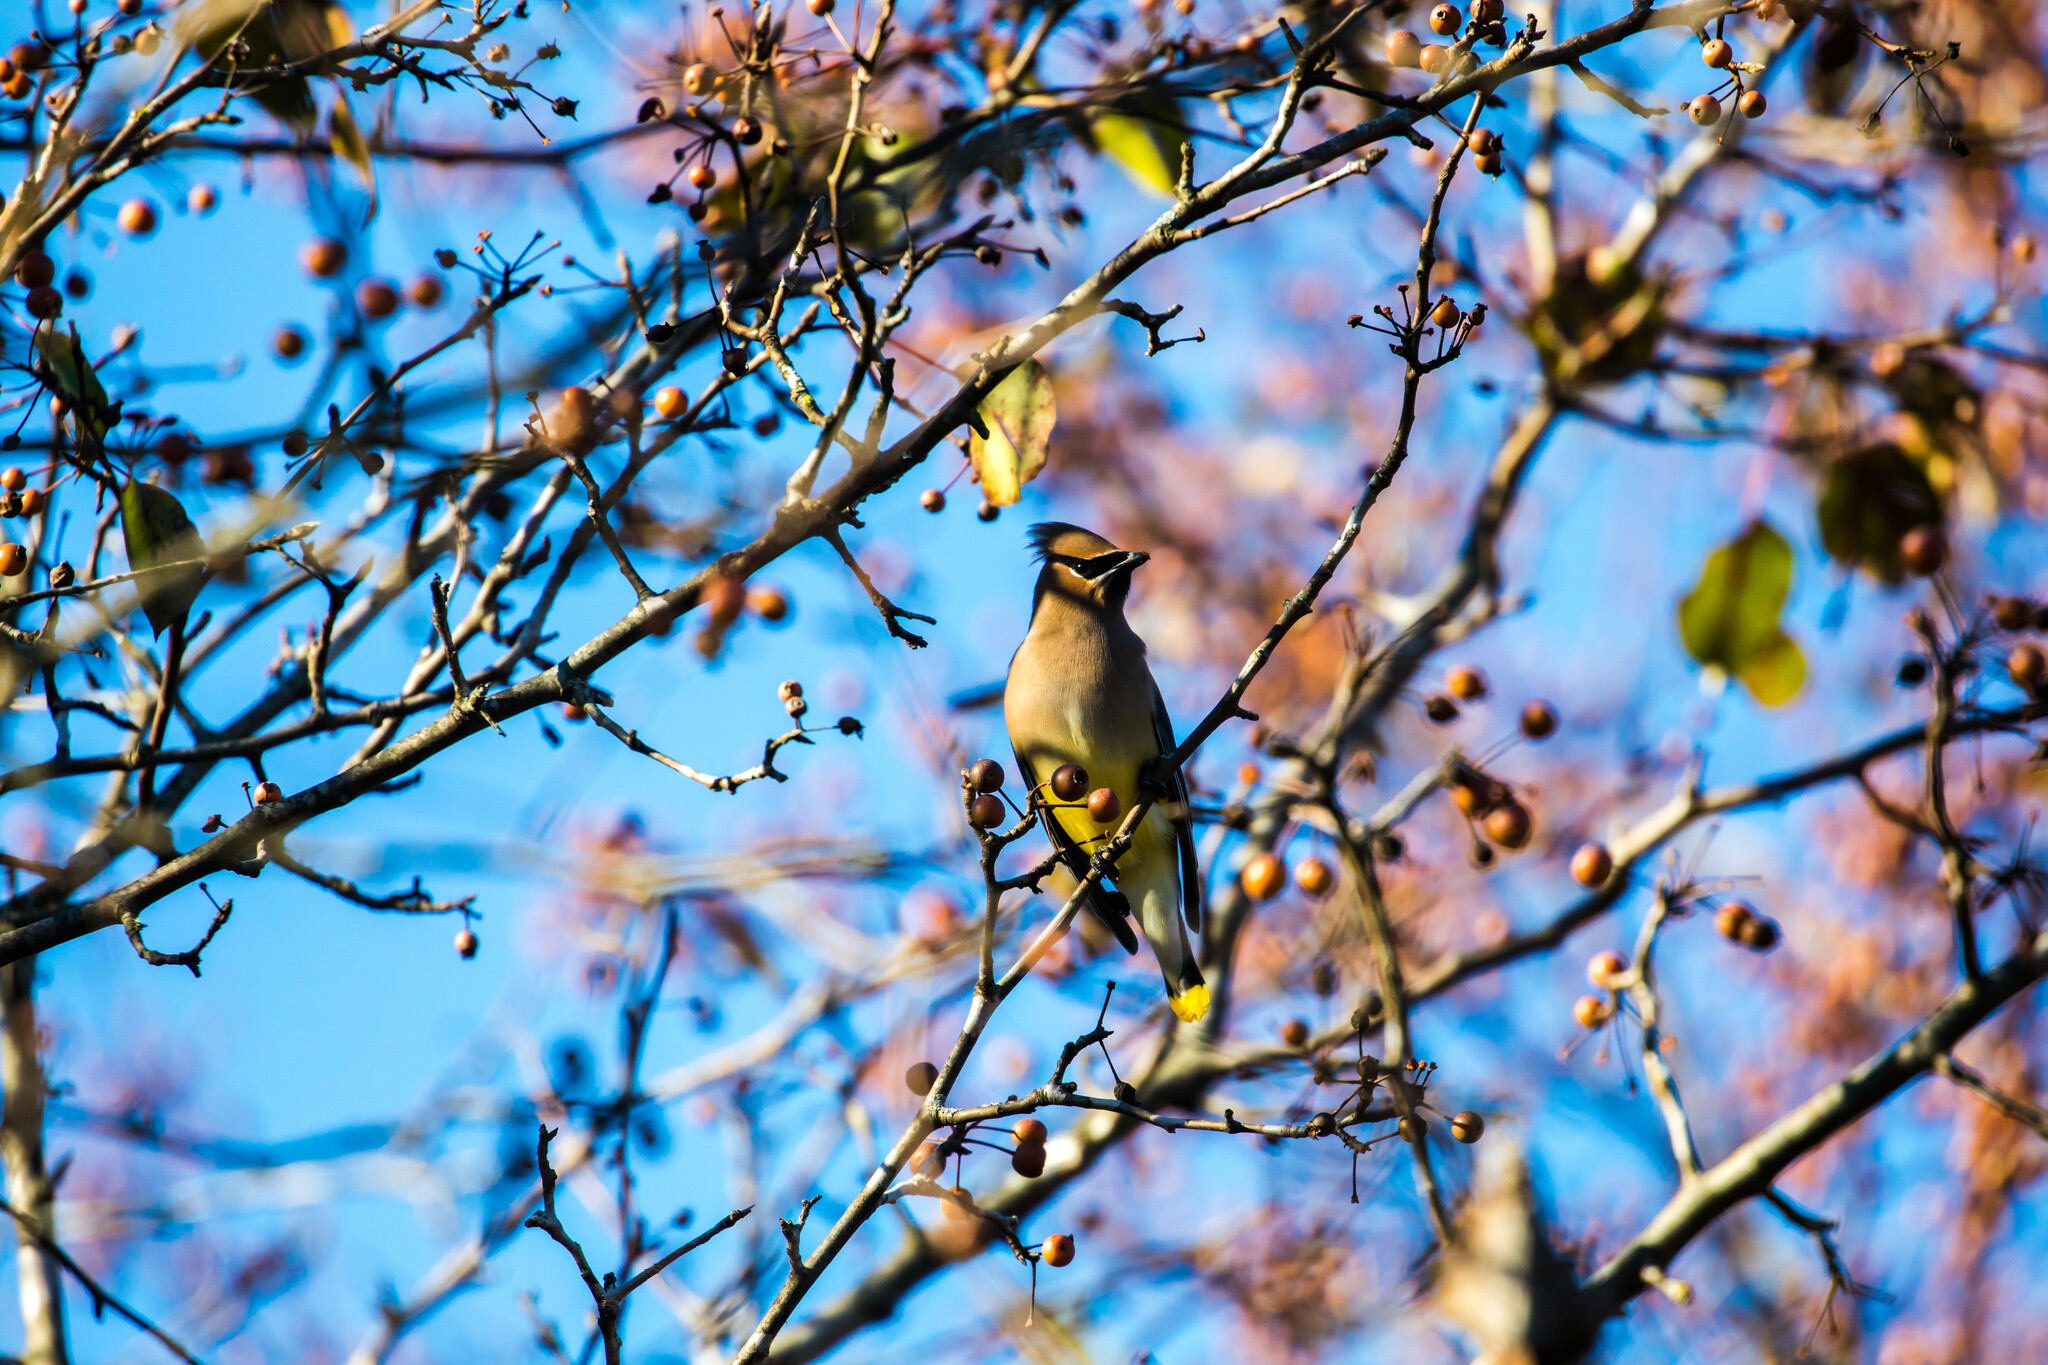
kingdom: Animalia
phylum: Chordata
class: Aves
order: Passeriformes
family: Bombycillidae
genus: Bombycilla
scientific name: Bombycilla cedrorum
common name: Cedar waxwing
